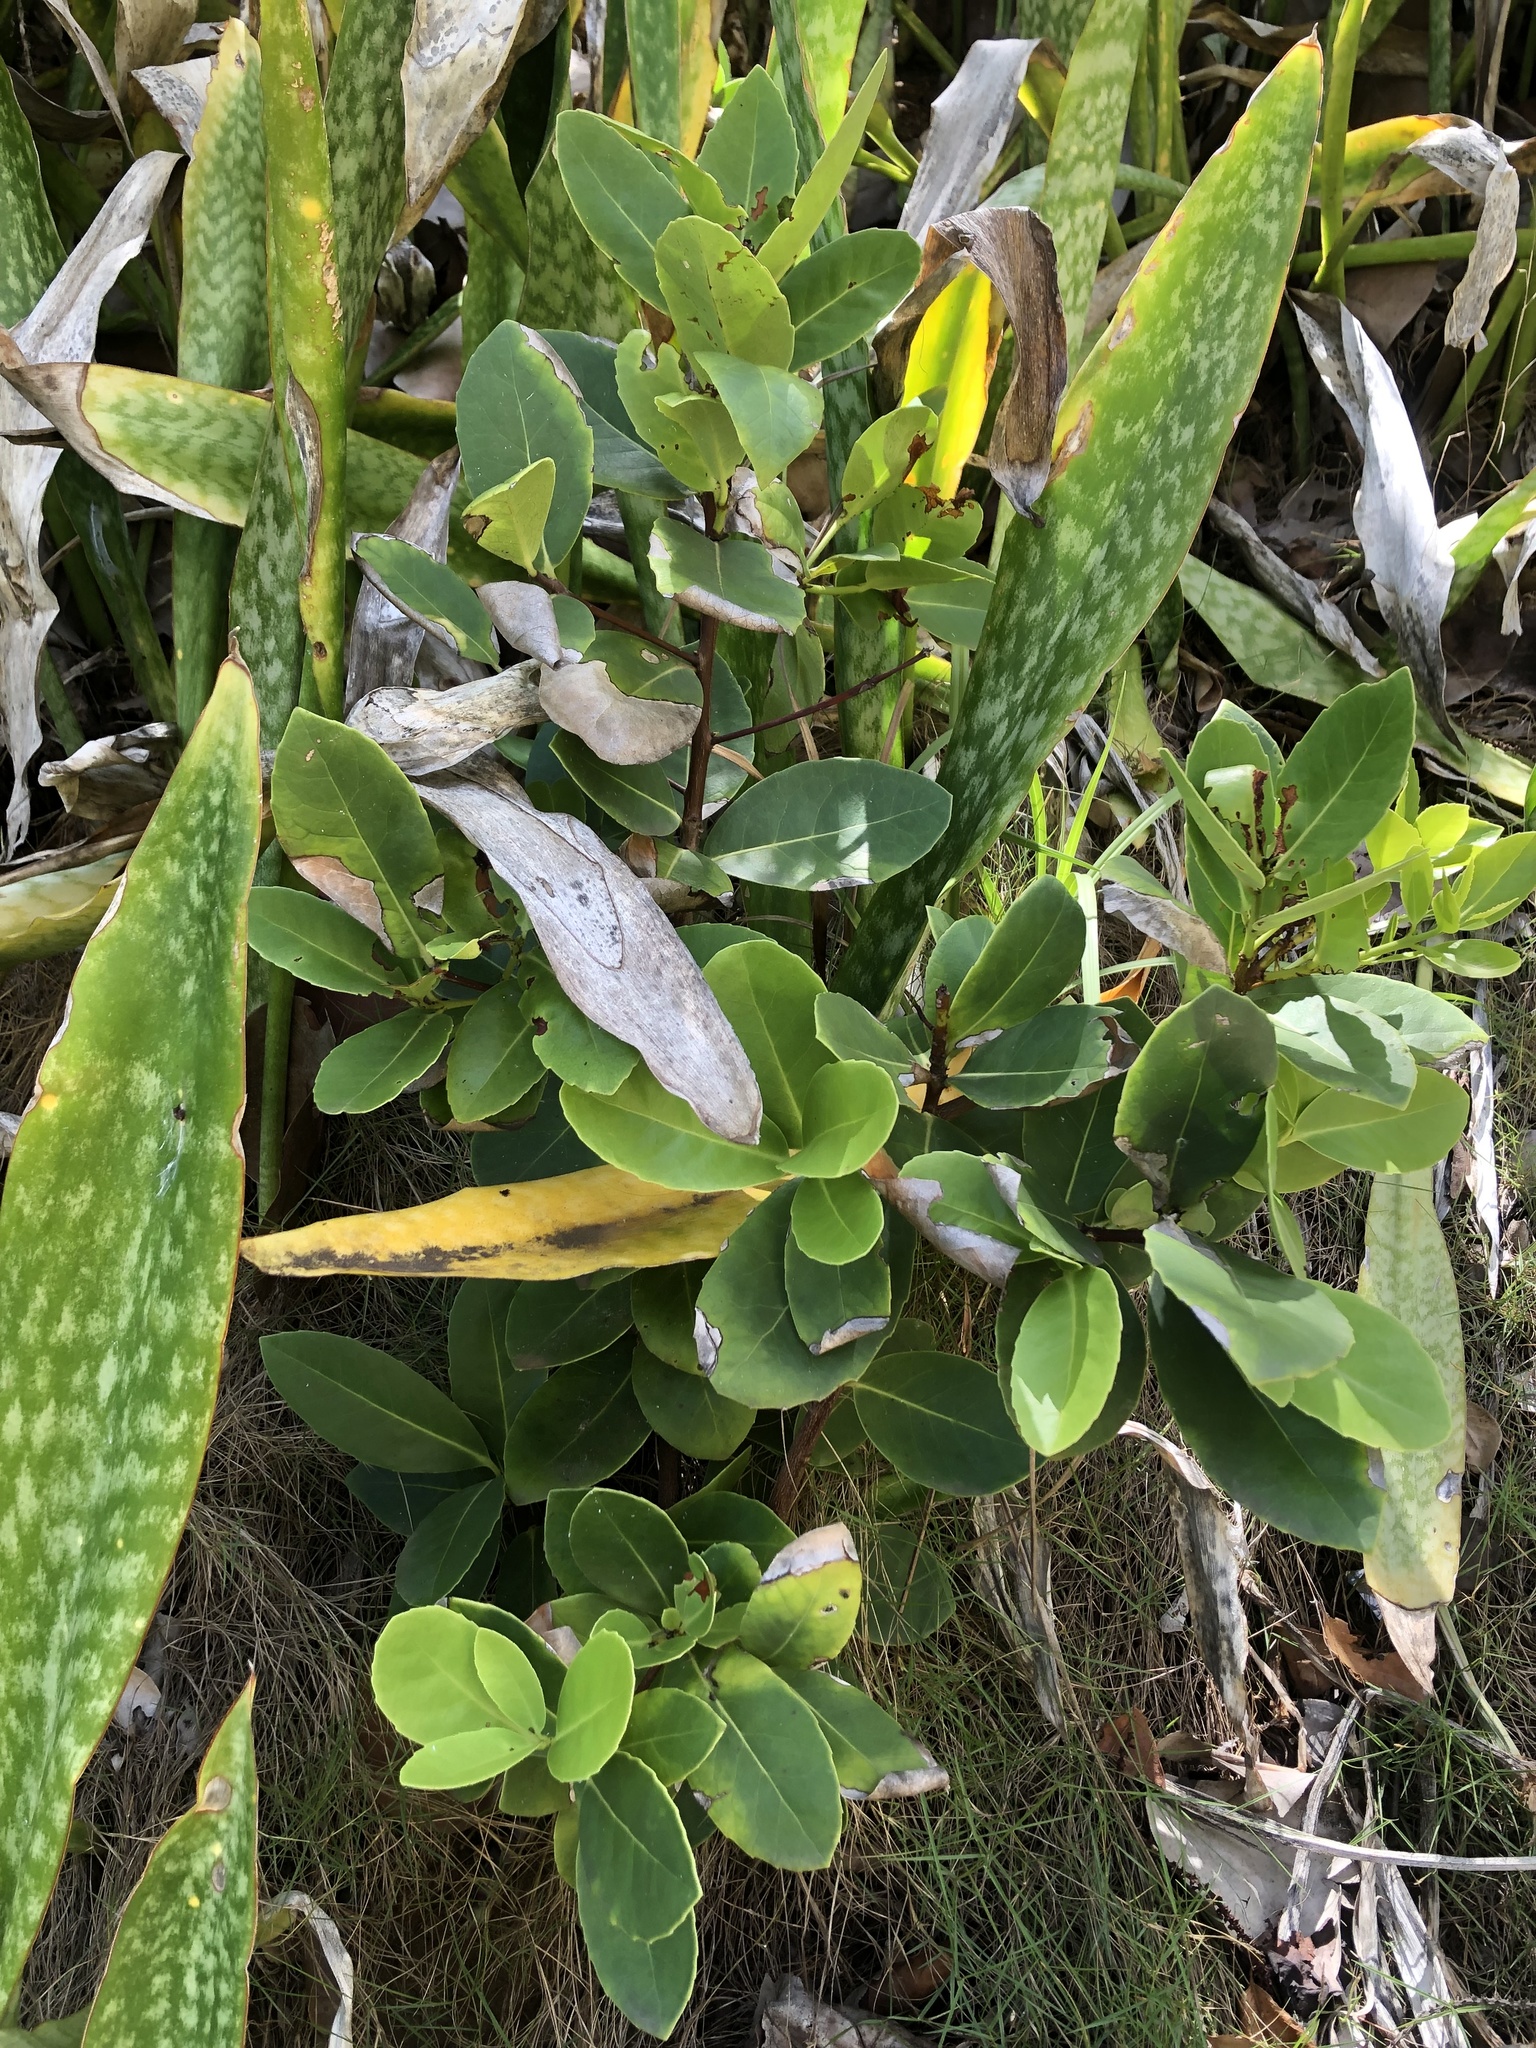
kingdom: Plantae
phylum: Tracheophyta
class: Magnoliopsida
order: Celastrales
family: Celastraceae
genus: Elaeodendron
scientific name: Elaeodendron xylocarpum
